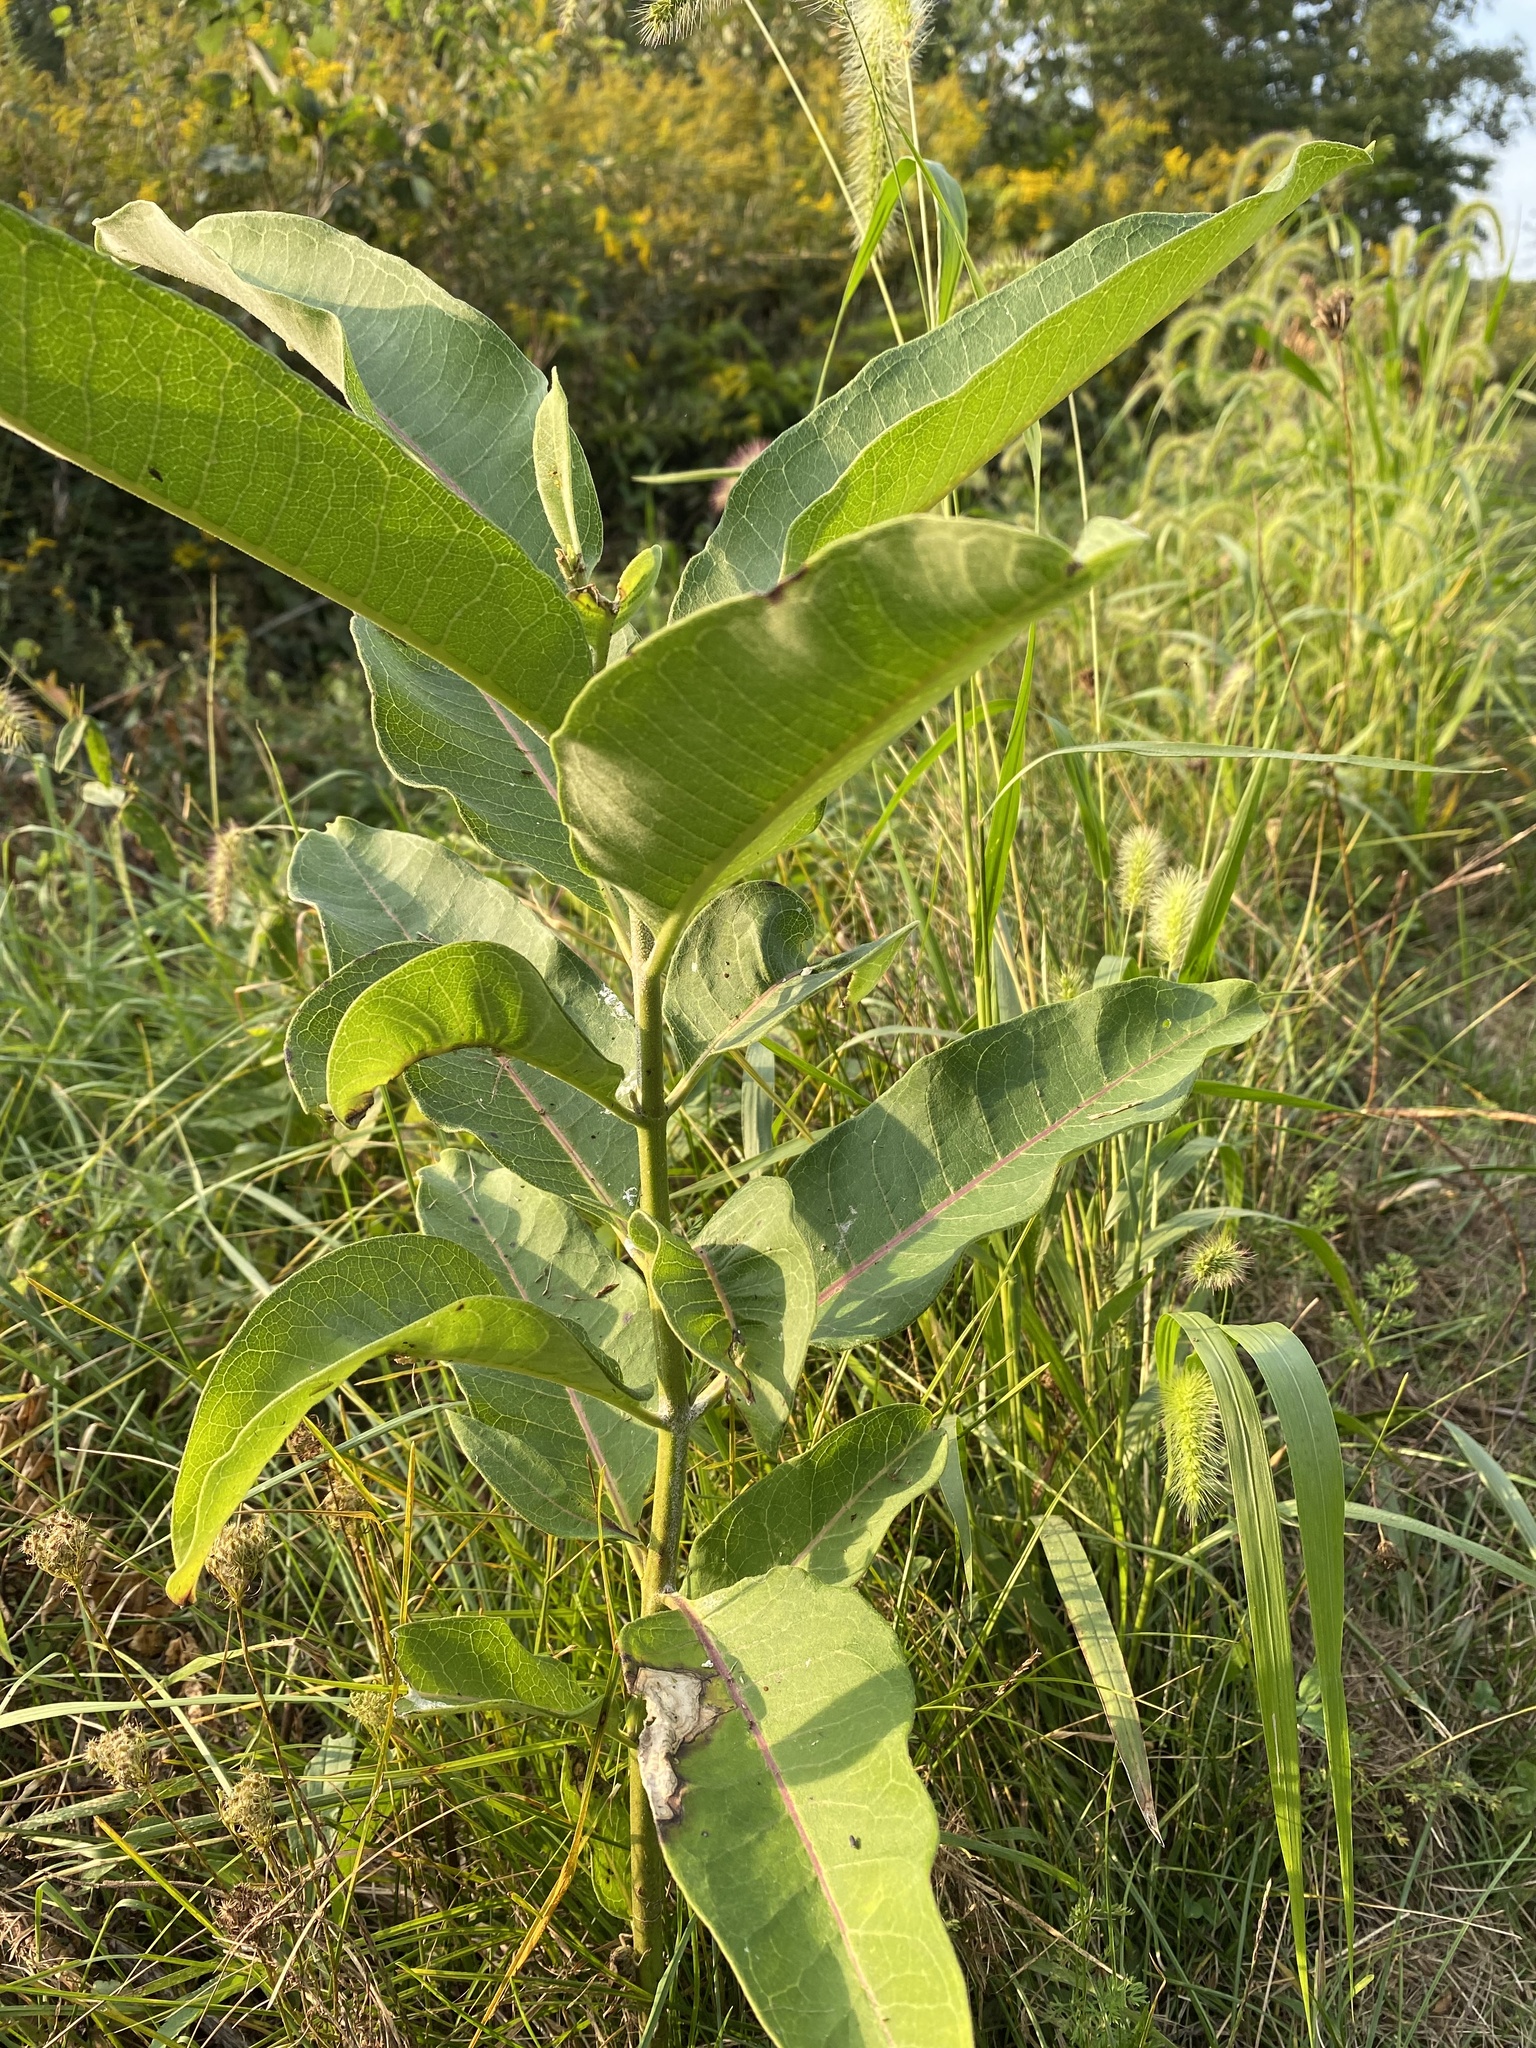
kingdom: Plantae
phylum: Tracheophyta
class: Magnoliopsida
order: Gentianales
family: Apocynaceae
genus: Asclepias
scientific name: Asclepias syriaca
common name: Common milkweed
